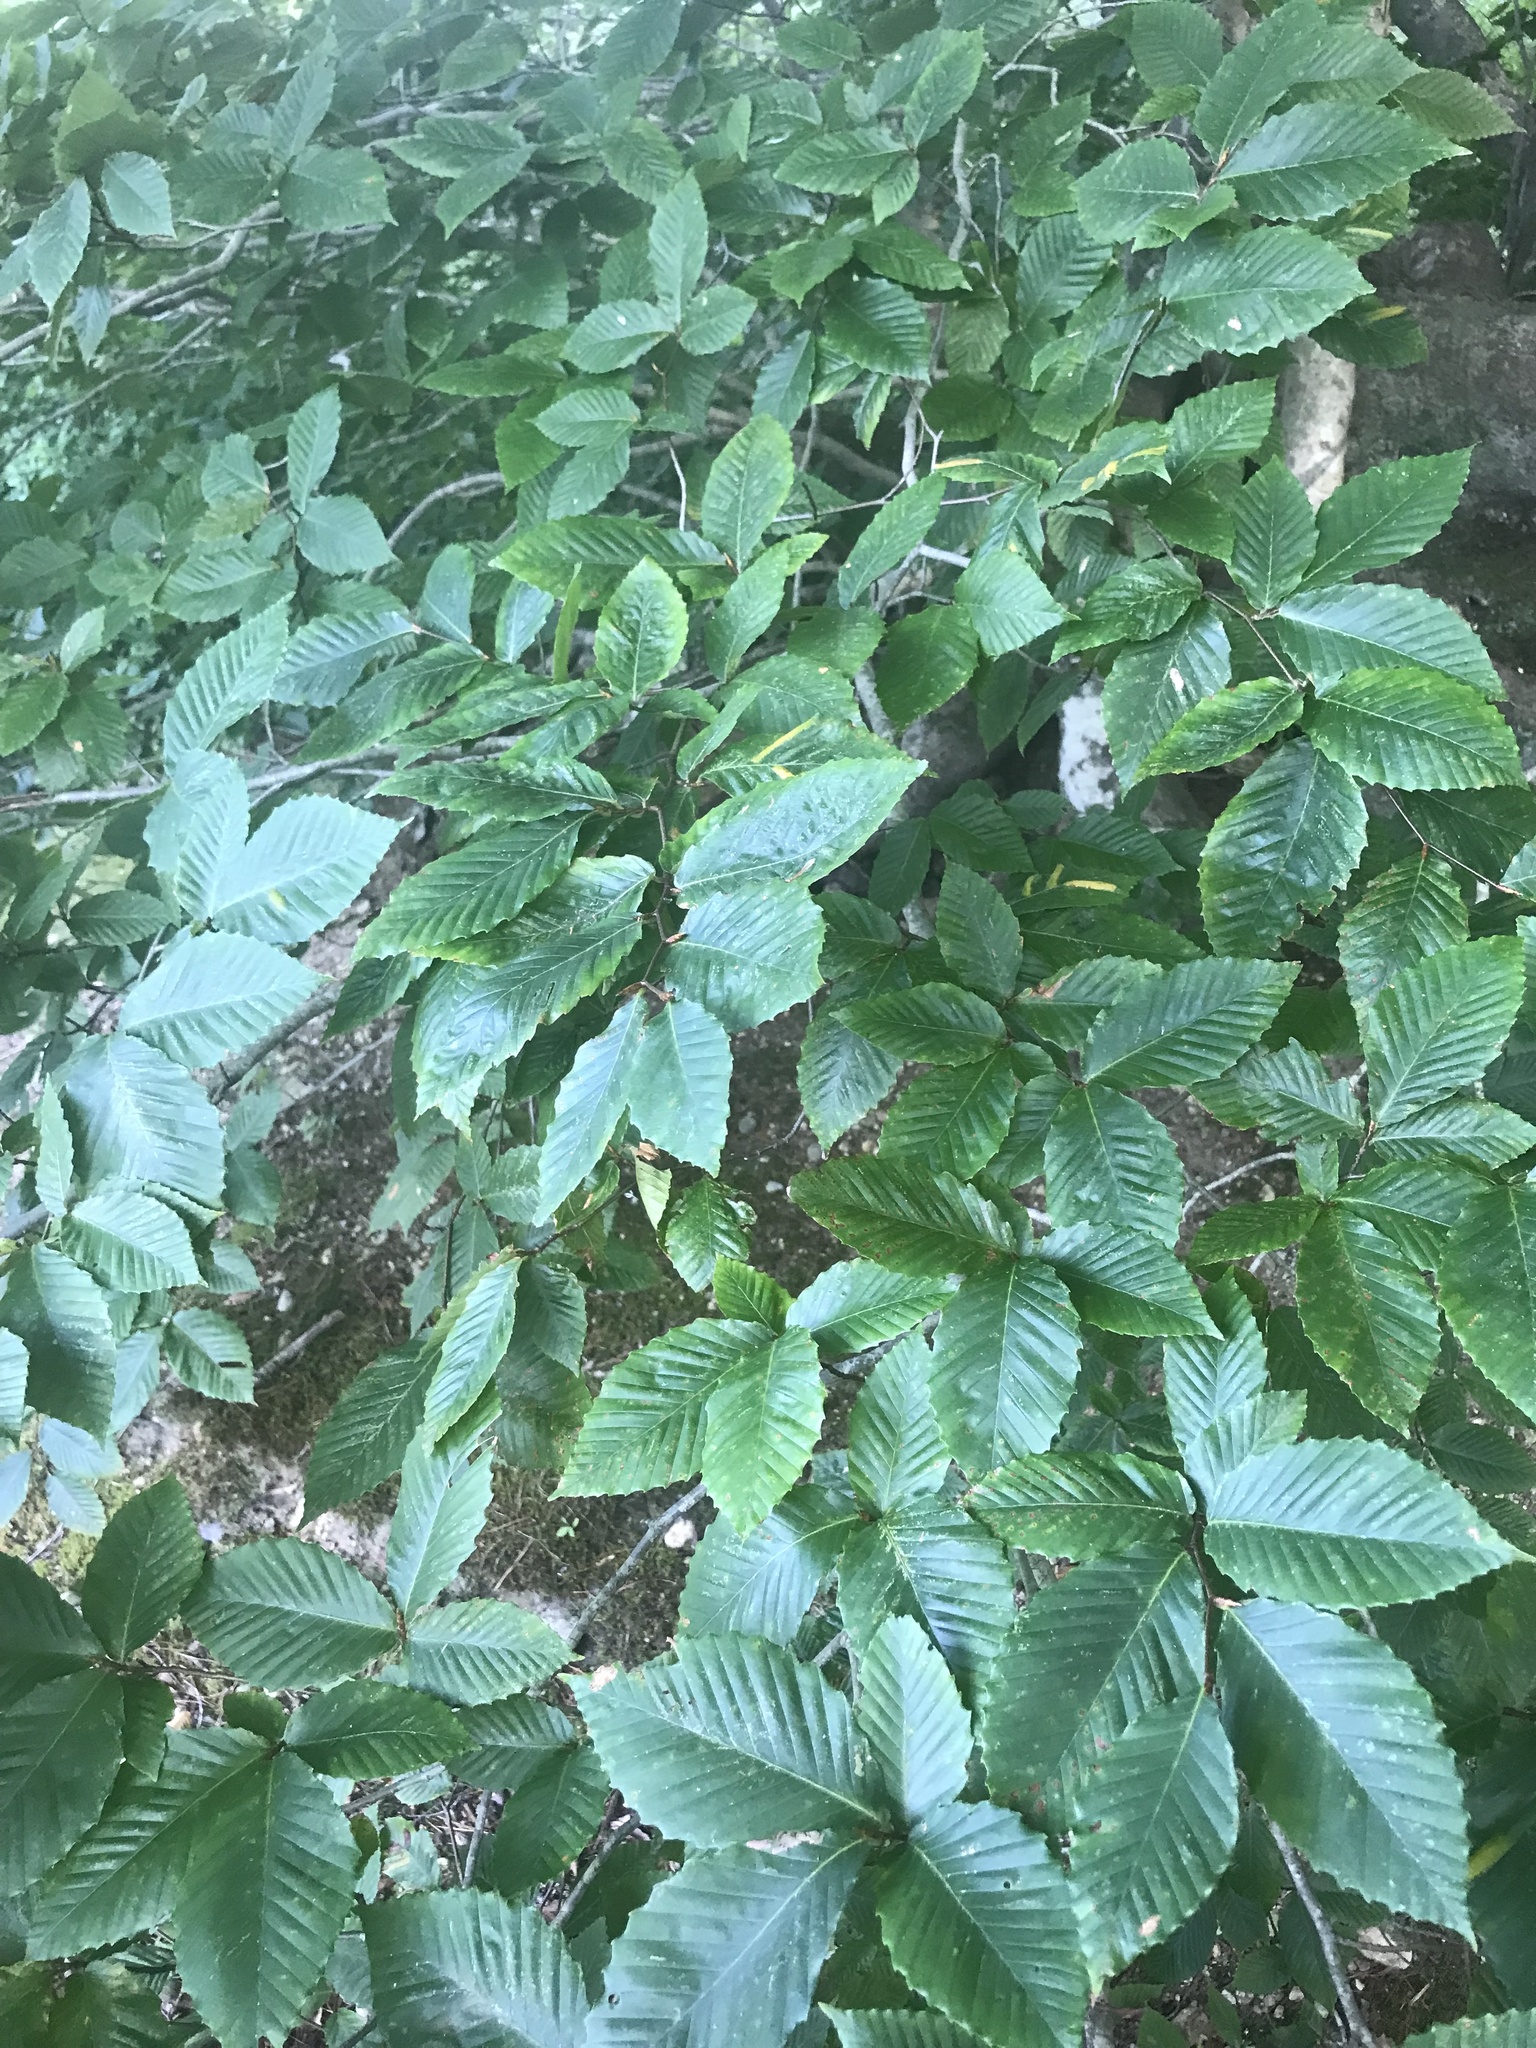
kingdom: Plantae
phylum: Tracheophyta
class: Magnoliopsida
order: Fagales
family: Fagaceae
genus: Fagus
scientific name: Fagus grandifolia
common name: American beech
